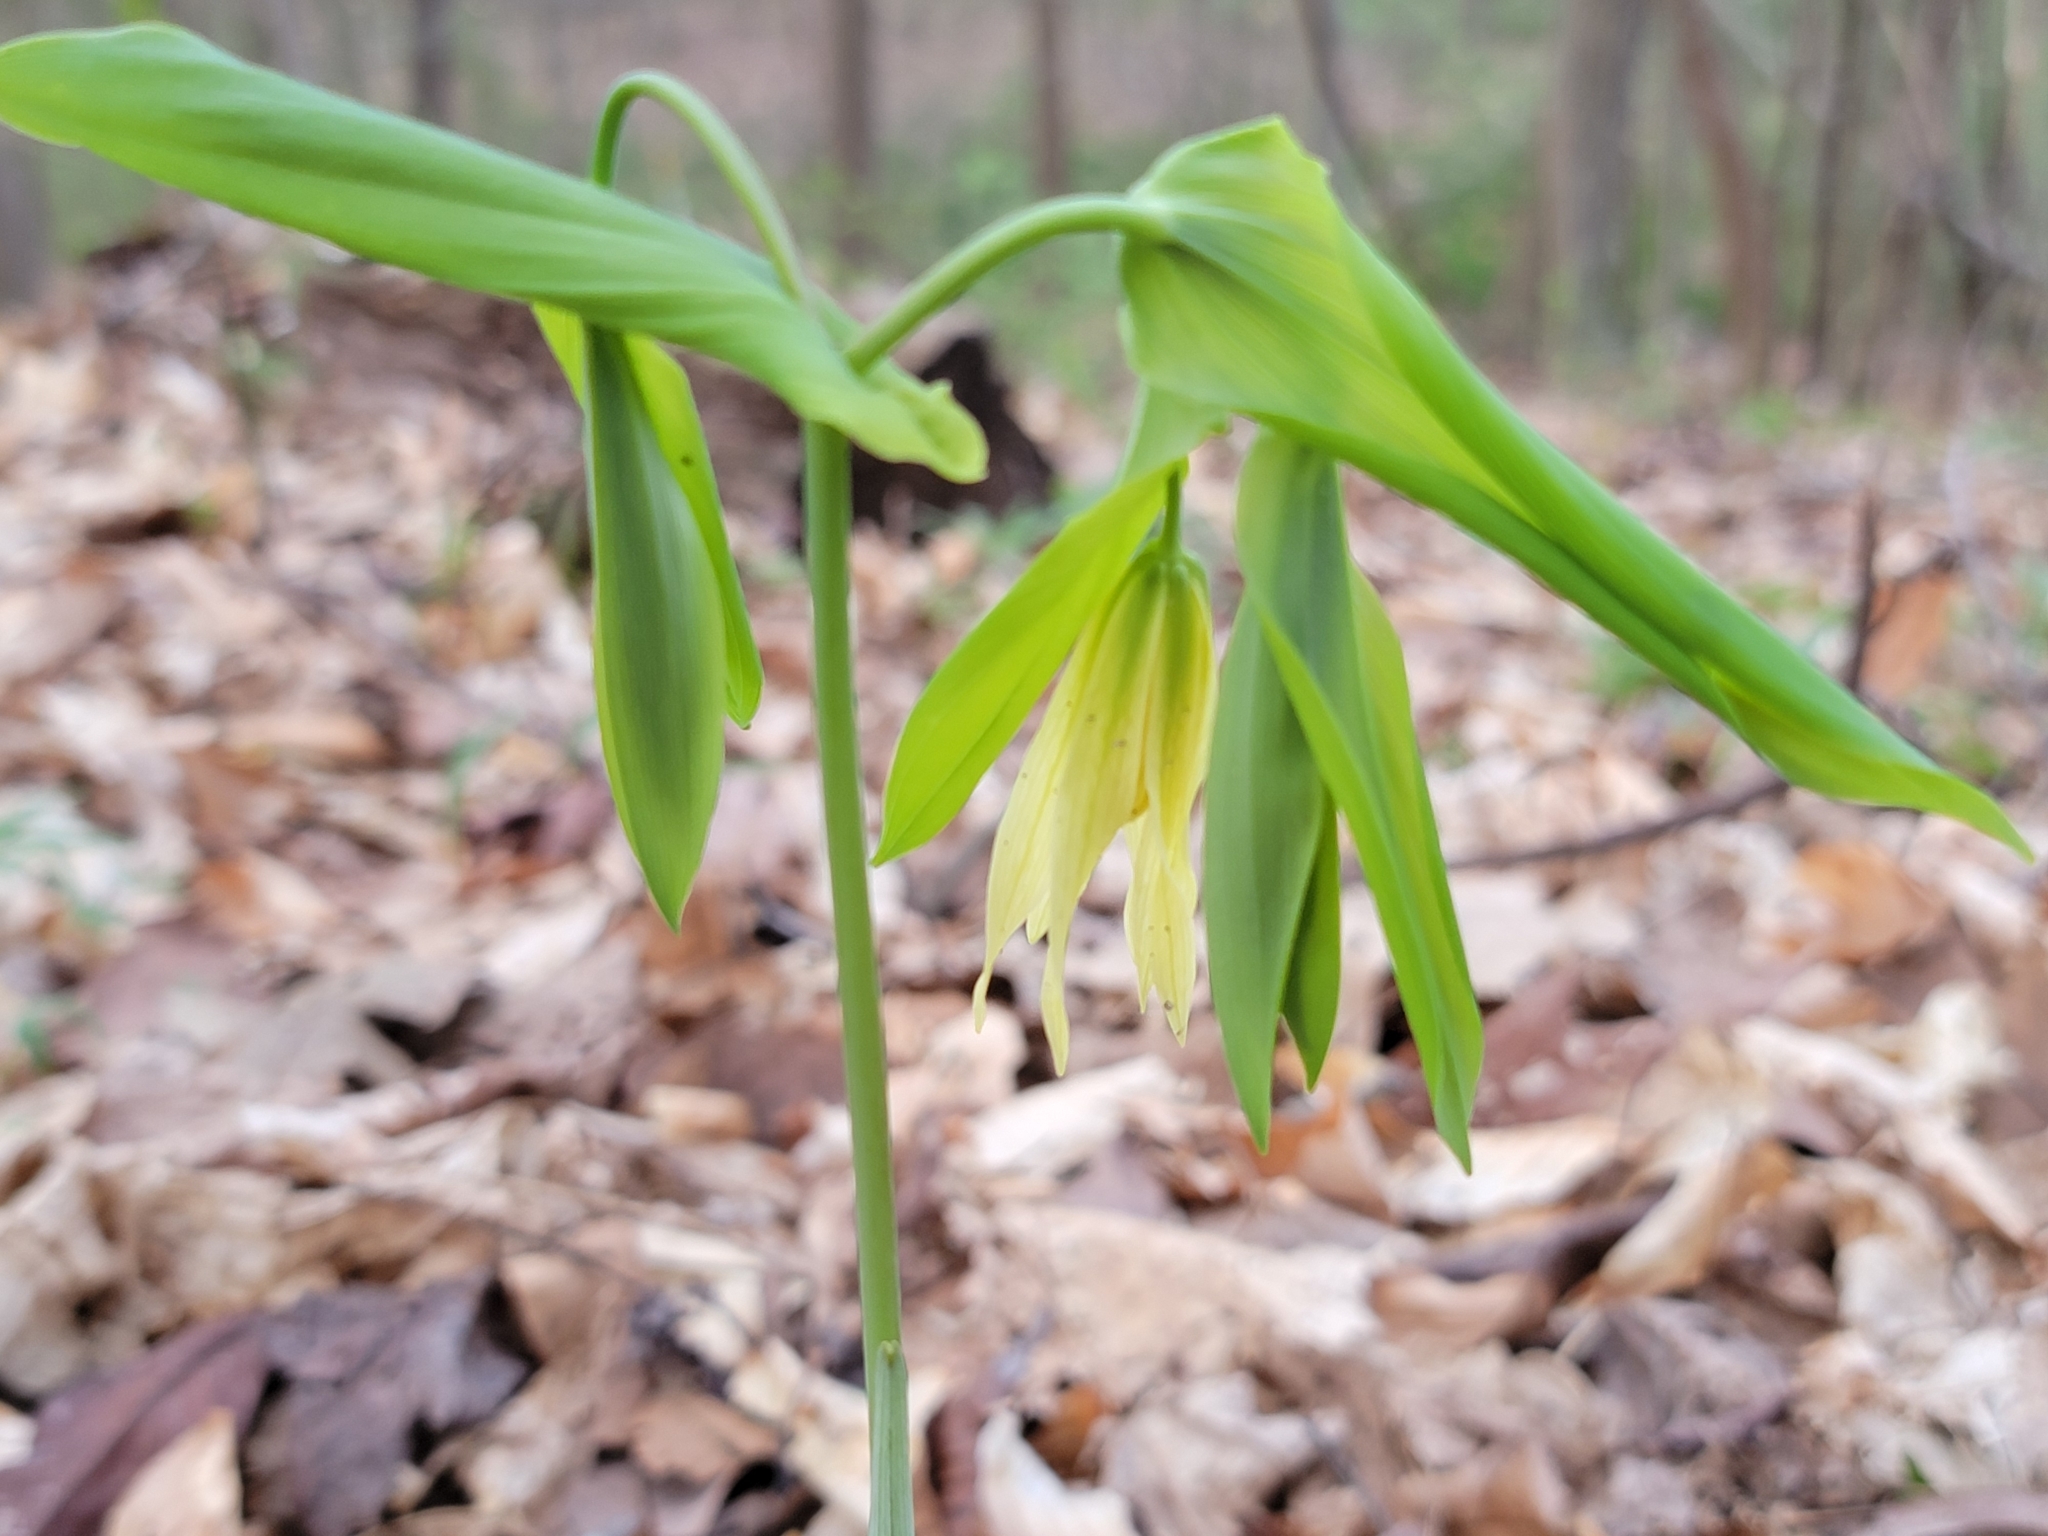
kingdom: Plantae
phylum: Tracheophyta
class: Liliopsida
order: Liliales
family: Colchicaceae
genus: Uvularia
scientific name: Uvularia grandiflora
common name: Bellwort
